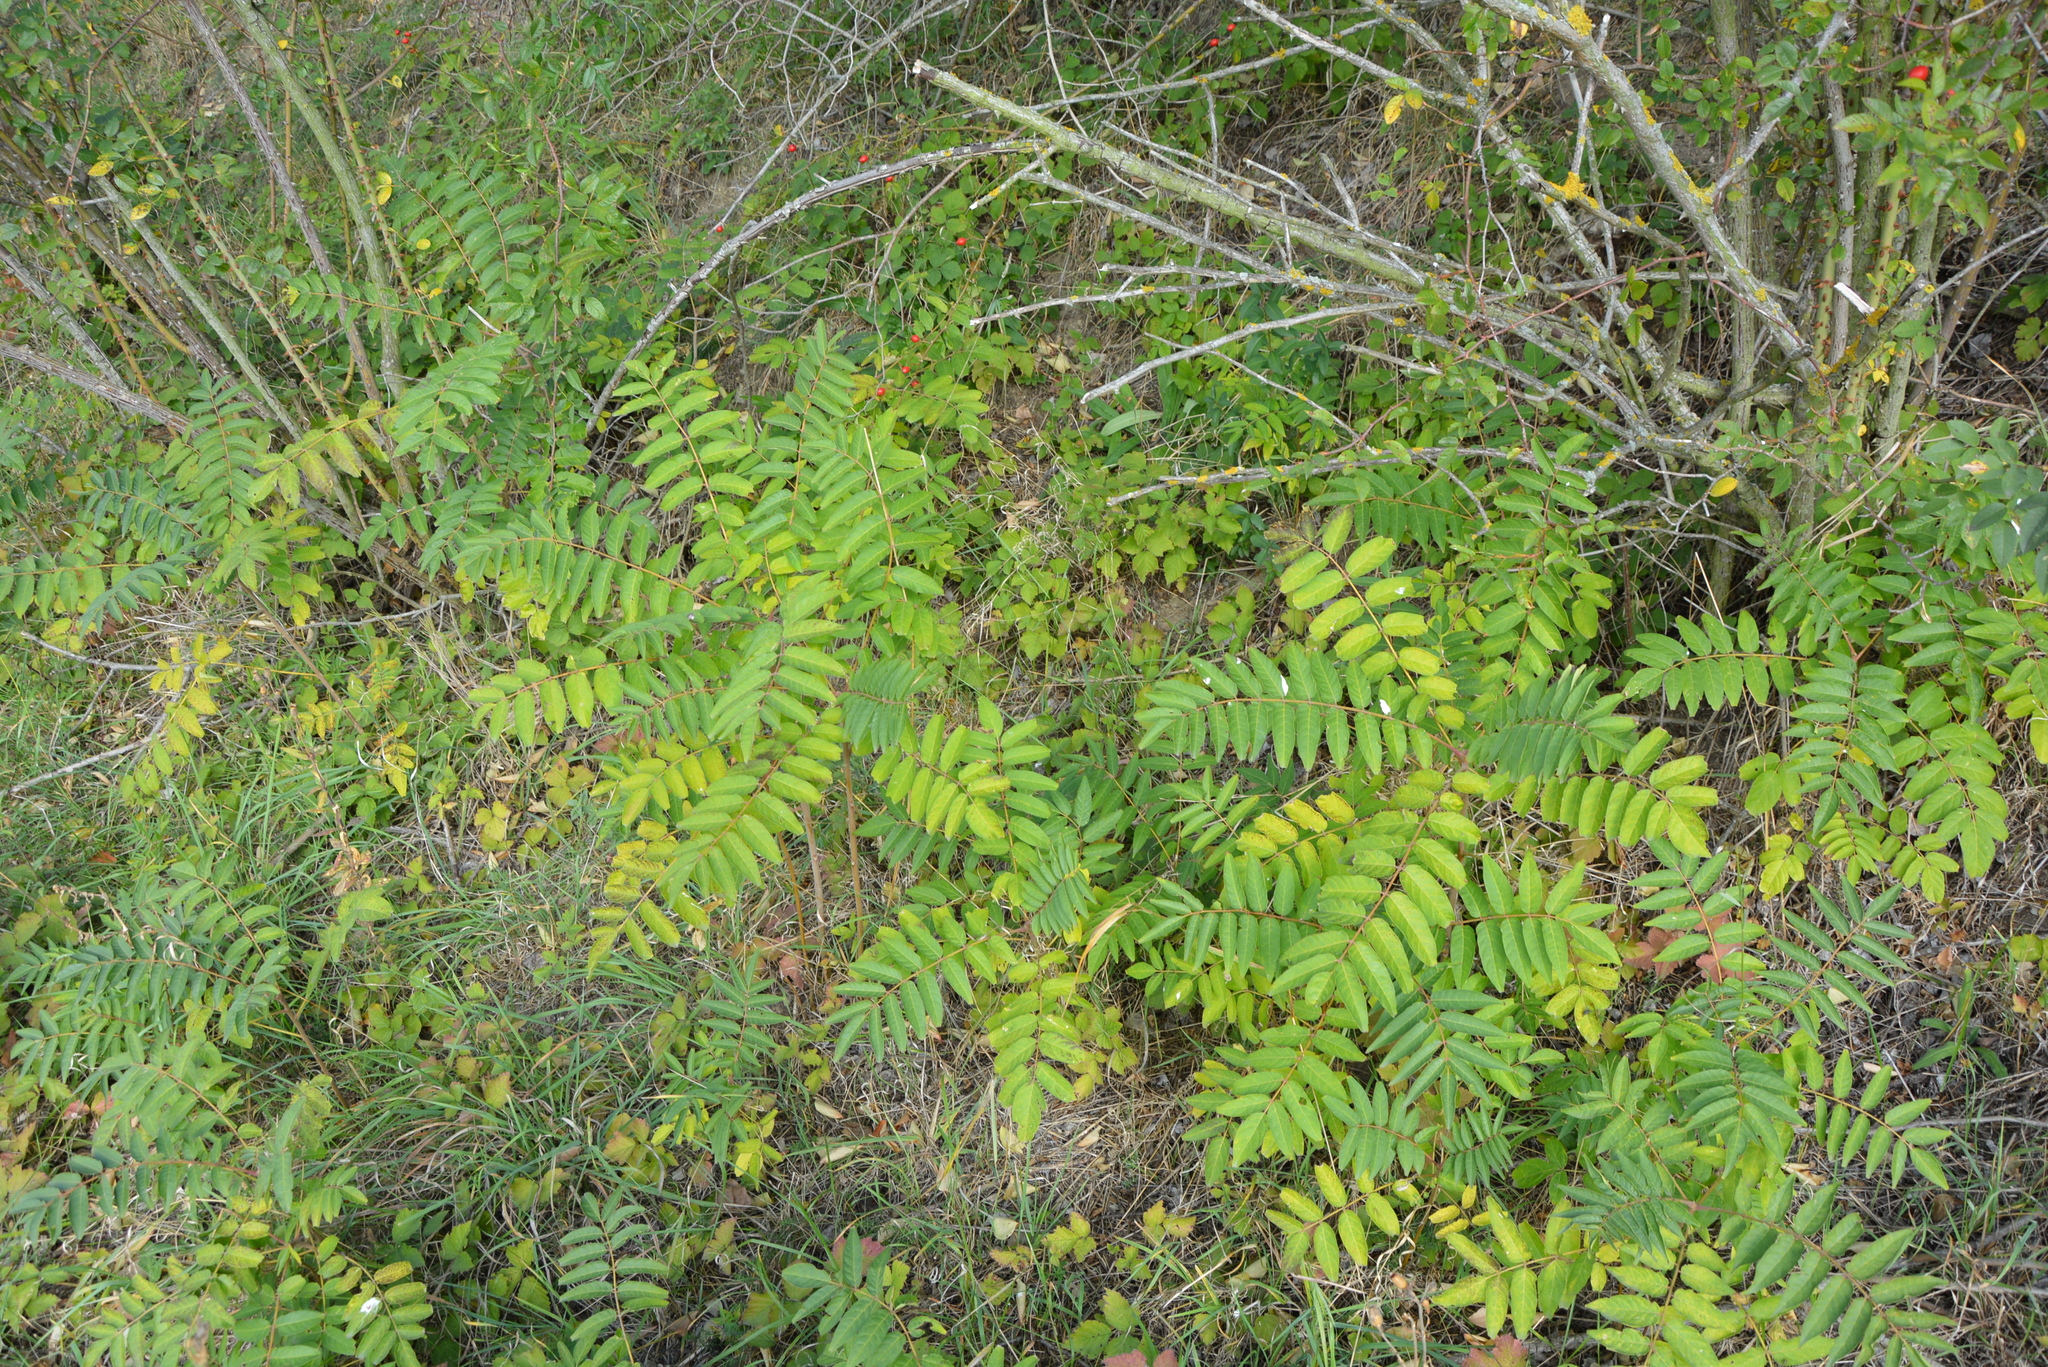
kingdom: Plantae
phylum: Tracheophyta
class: Magnoliopsida
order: Sapindales
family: Simaroubaceae
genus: Ailanthus
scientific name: Ailanthus altissima
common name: Tree-of-heaven
